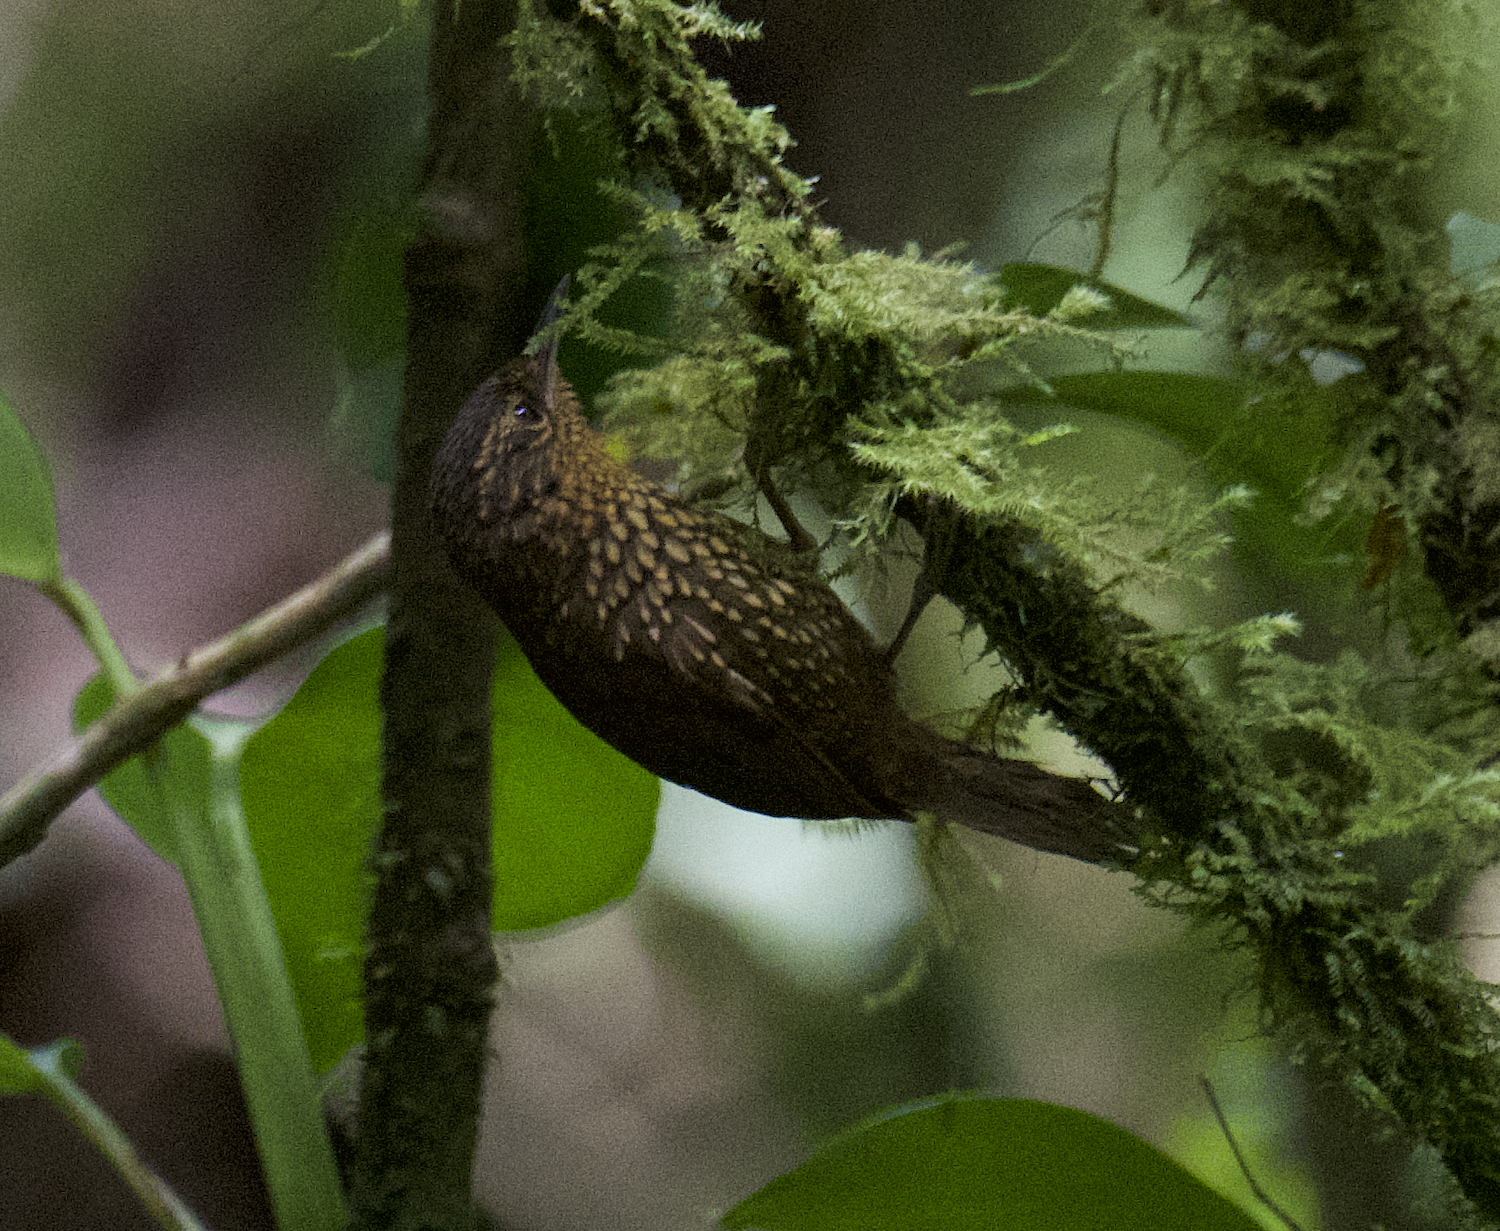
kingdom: Animalia
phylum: Chordata
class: Aves
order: Passeriformes
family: Furnariidae
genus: Premnoplex
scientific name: Premnoplex brunnescens
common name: Spotted barbtail
